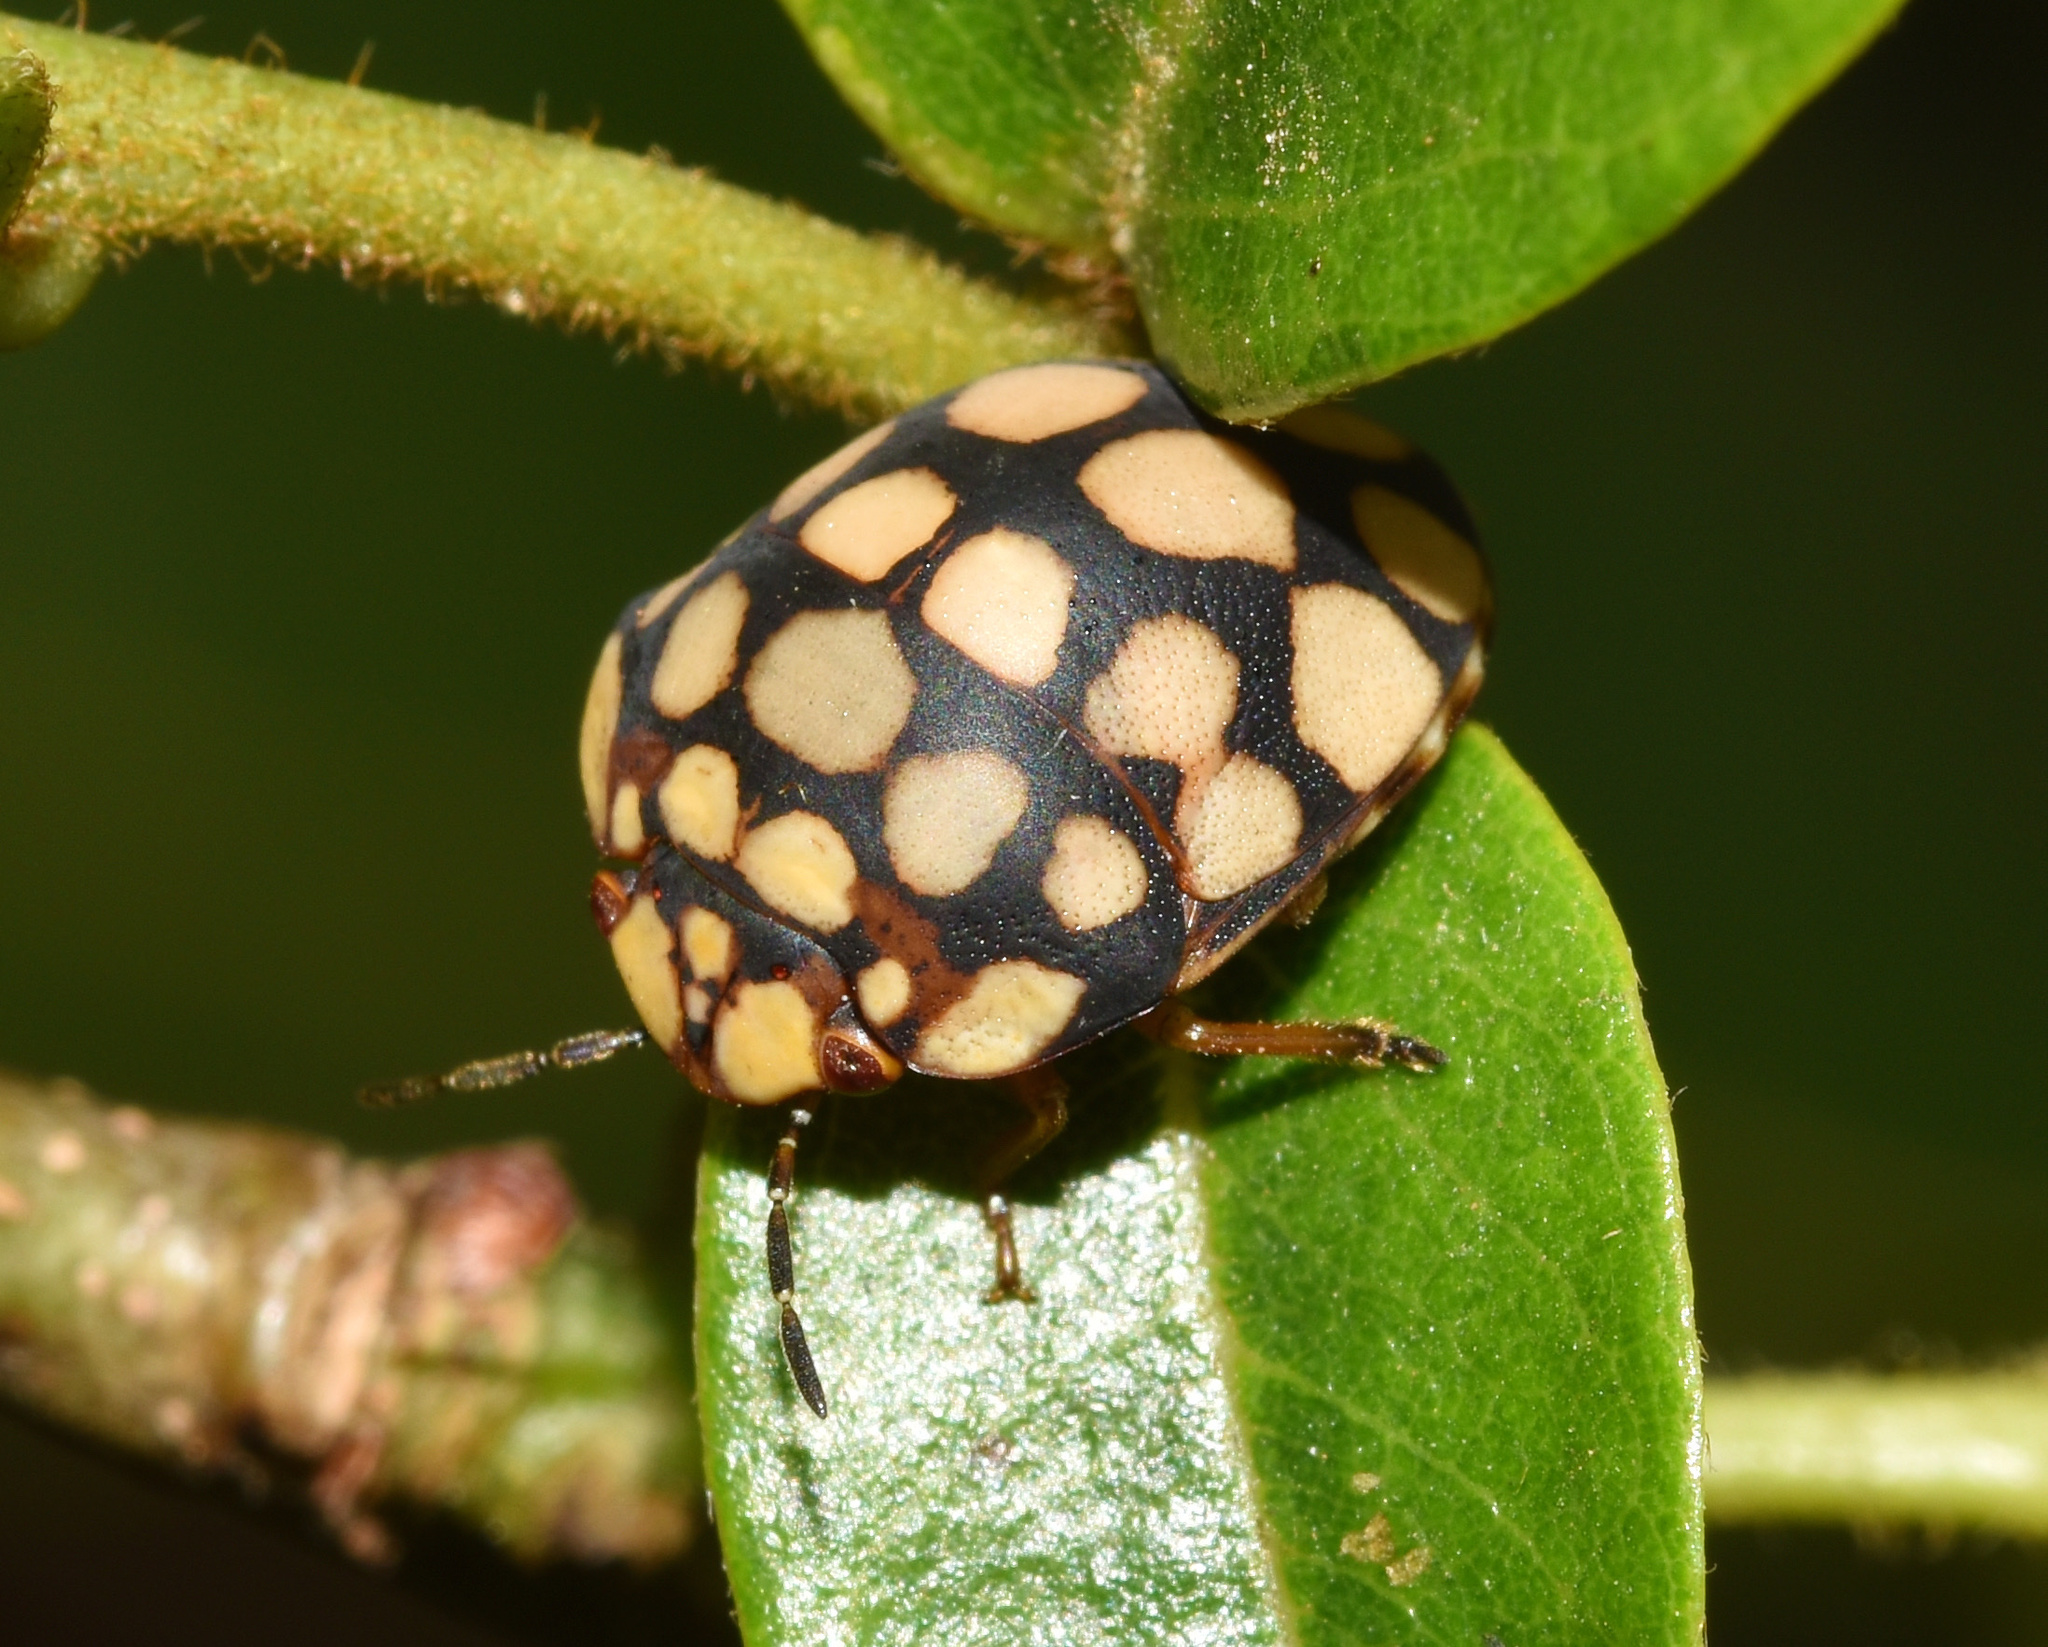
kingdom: Animalia
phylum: Arthropoda
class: Insecta
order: Hemiptera
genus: Steganocerus
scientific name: Steganocerus multipunctatus
